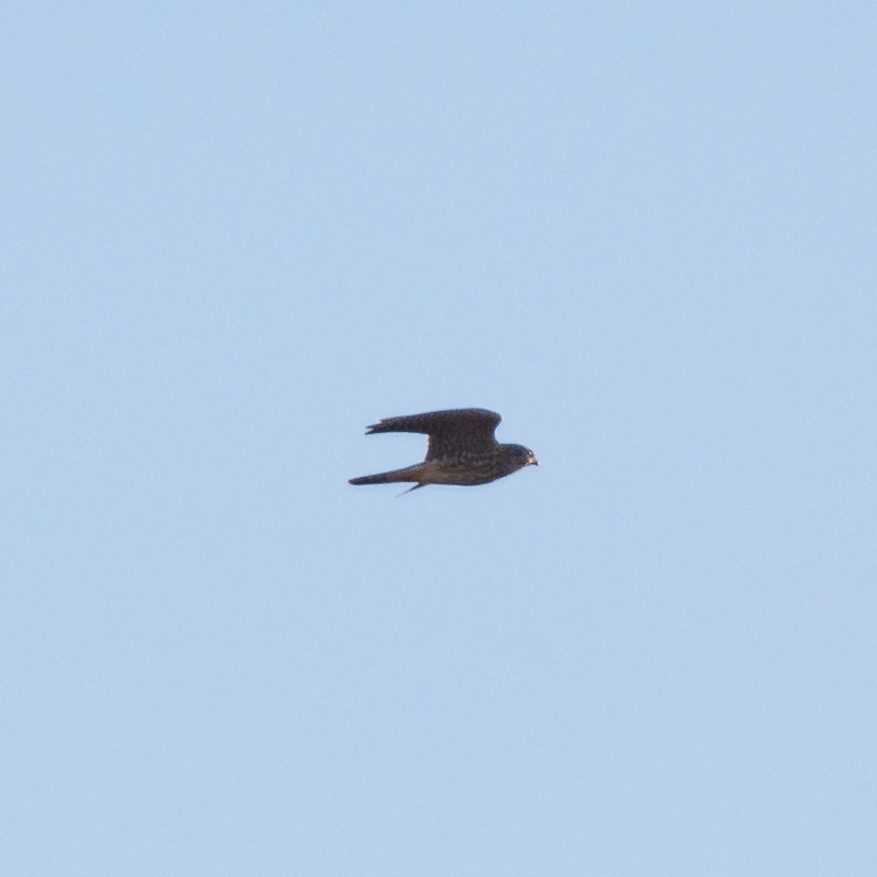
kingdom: Animalia
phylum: Chordata
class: Aves
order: Falconiformes
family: Falconidae
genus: Falco
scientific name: Falco columbarius
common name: Merlin
